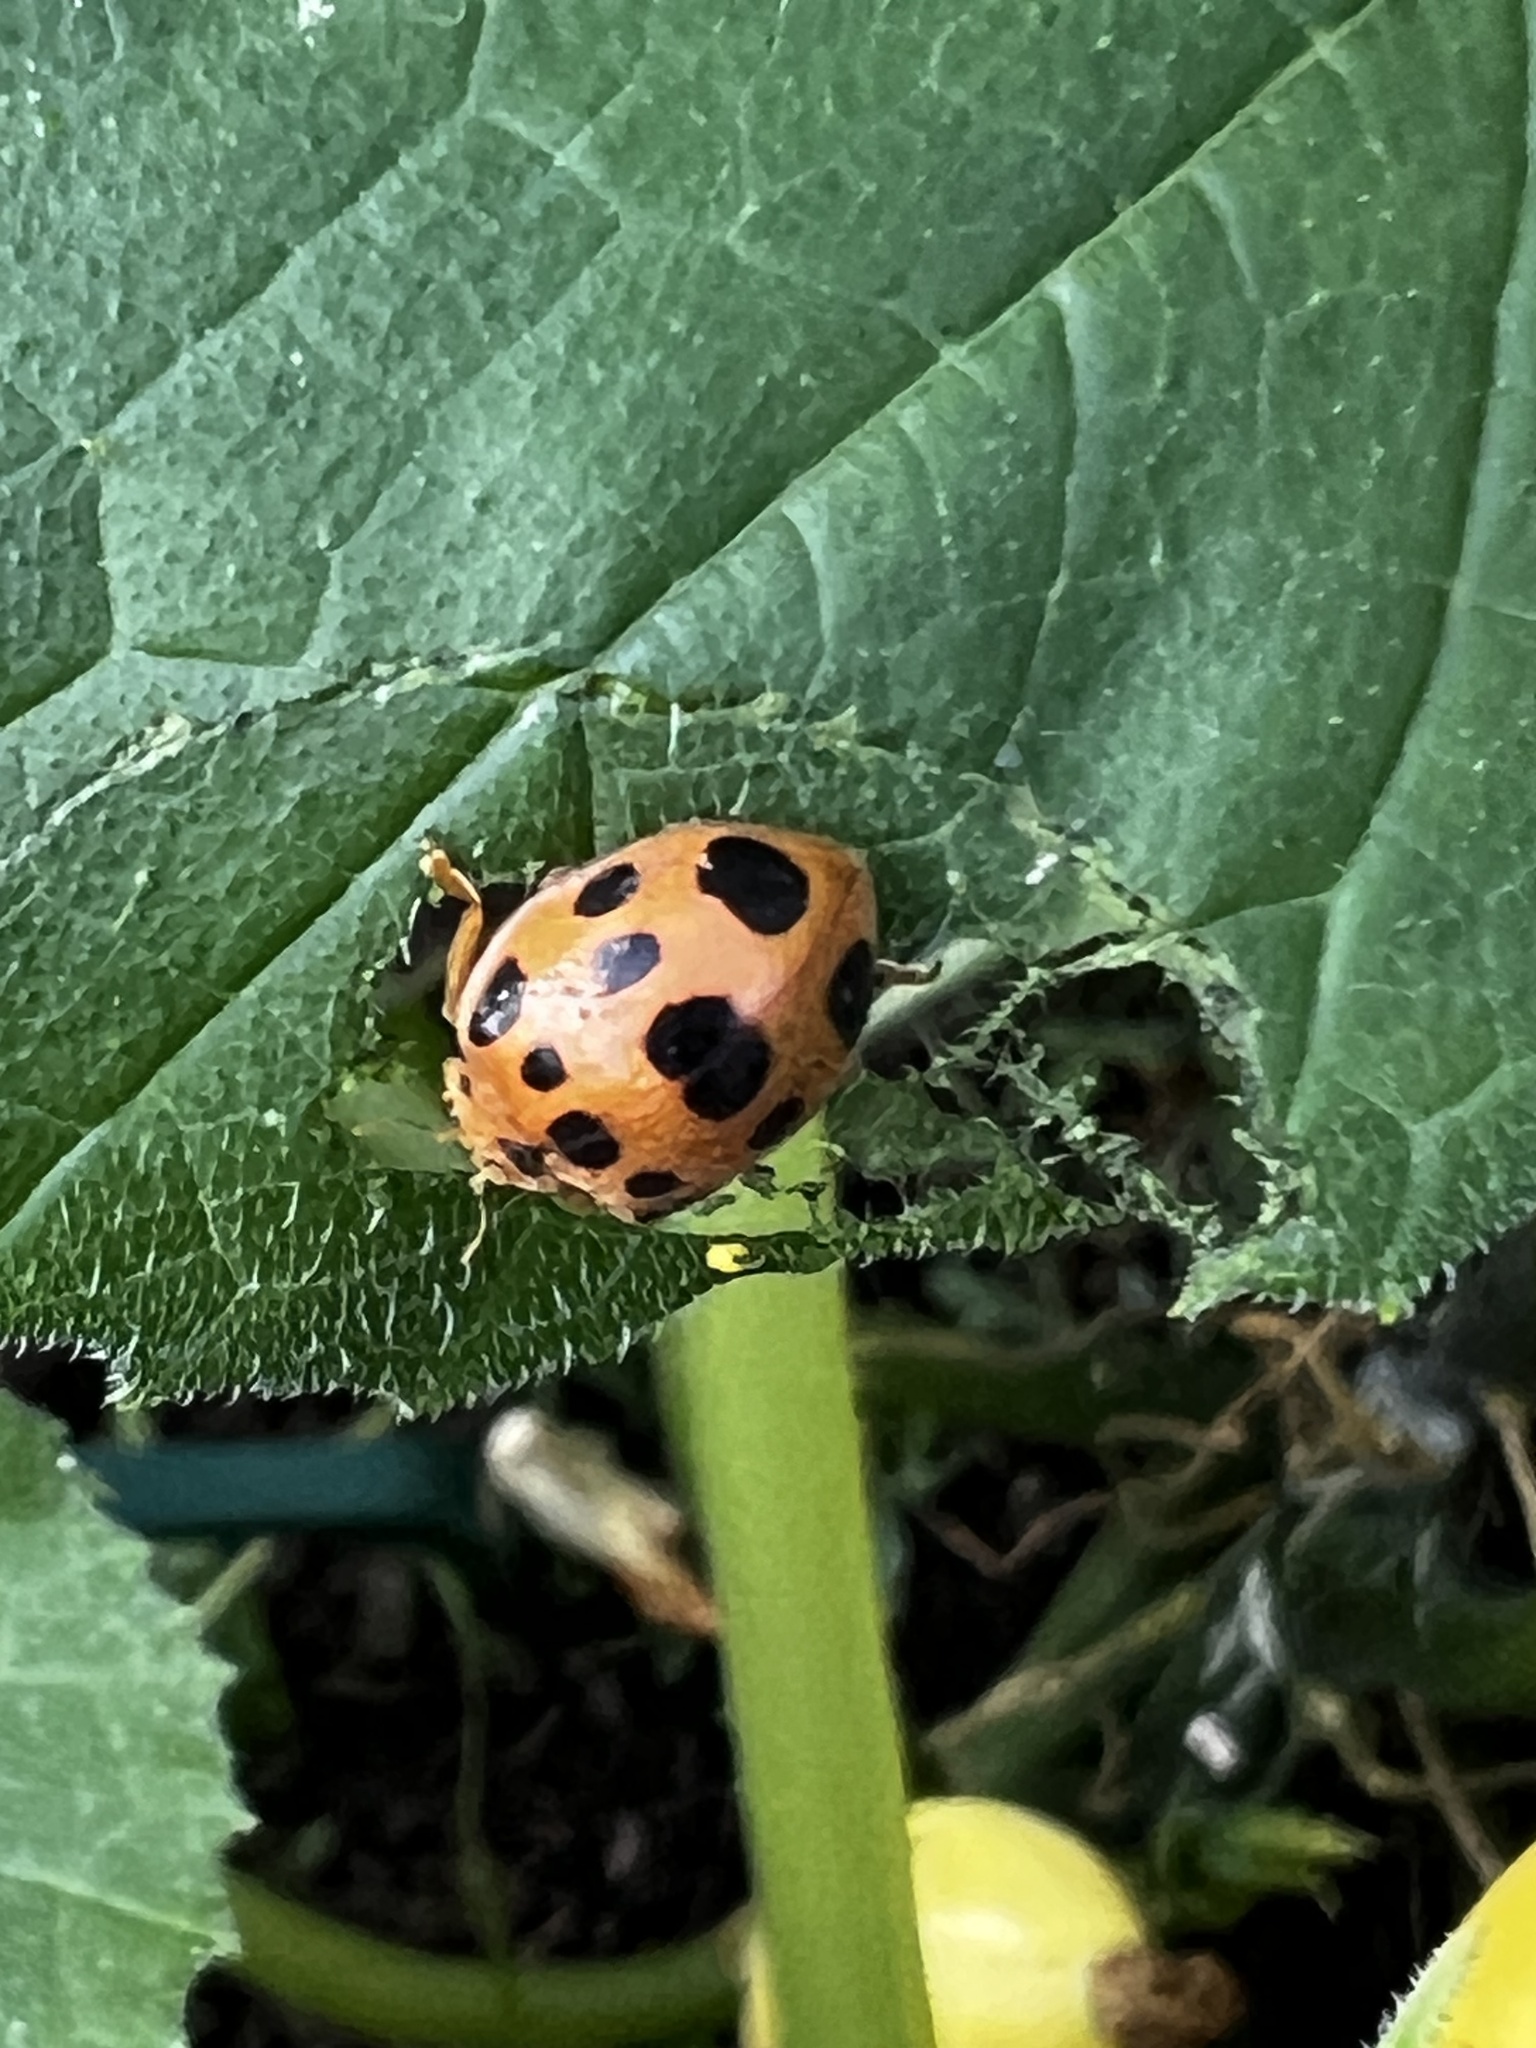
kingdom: Animalia
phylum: Arthropoda
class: Insecta
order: Coleoptera
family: Coccinellidae
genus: Epilachna
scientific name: Epilachna borealis
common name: Squash beetle
